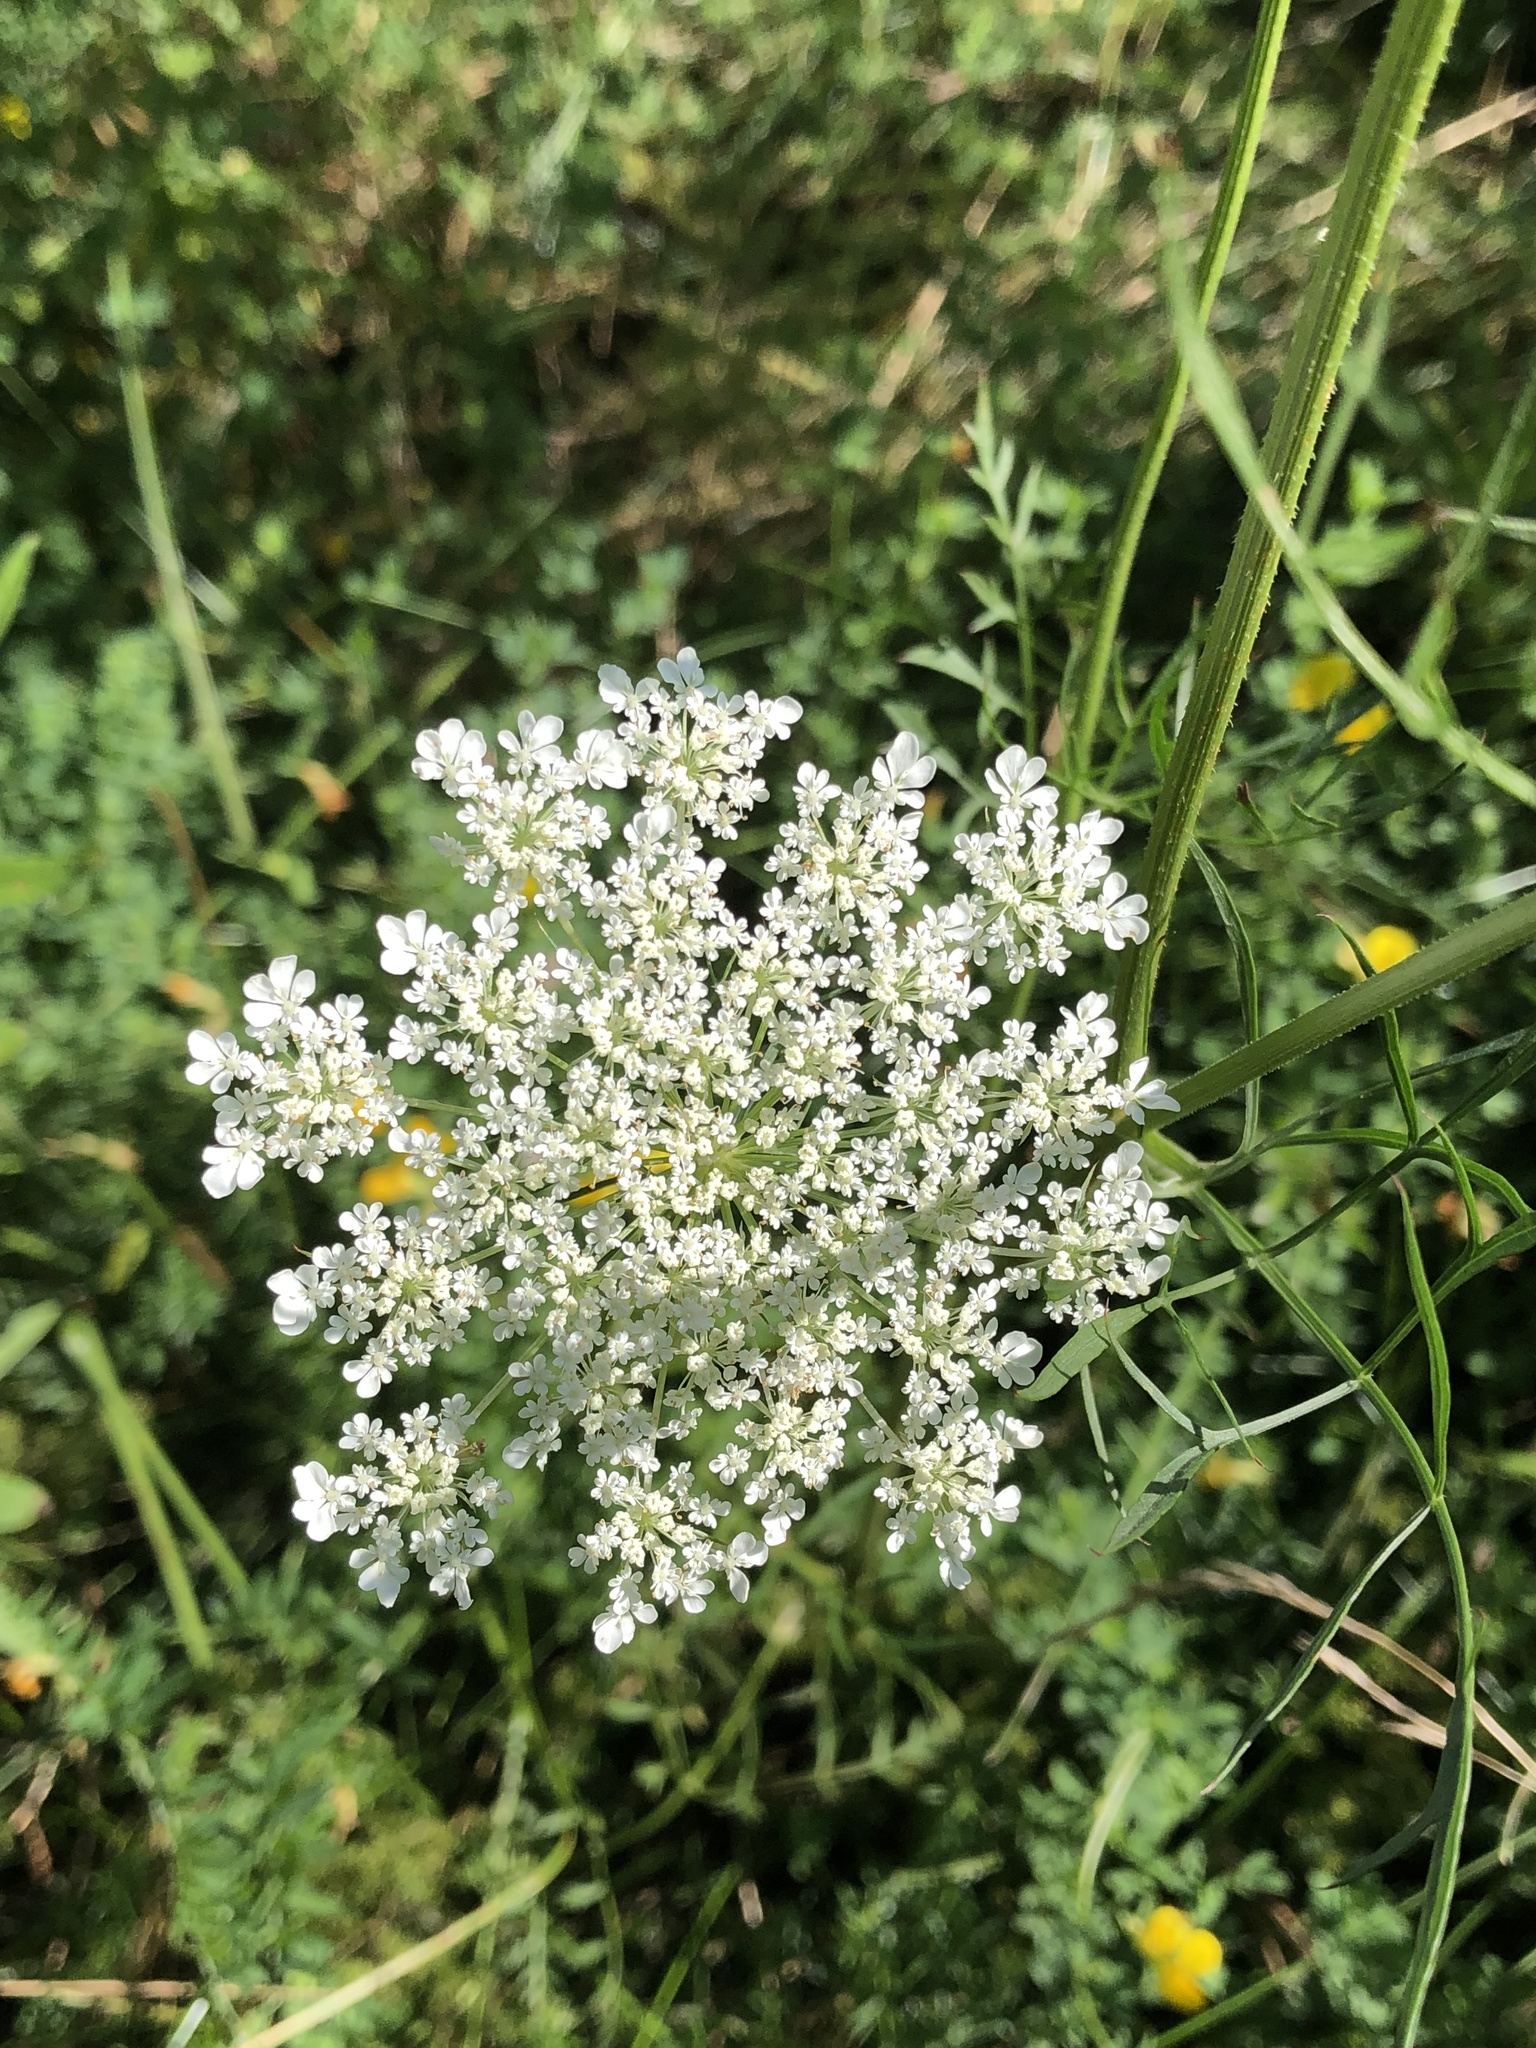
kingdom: Plantae
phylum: Tracheophyta
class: Magnoliopsida
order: Apiales
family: Apiaceae
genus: Daucus
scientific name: Daucus carota
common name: Wild carrot
